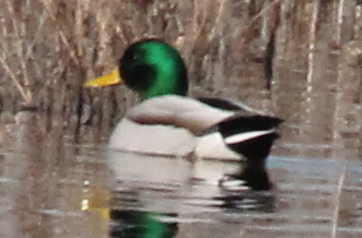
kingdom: Animalia
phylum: Chordata
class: Aves
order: Anseriformes
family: Anatidae
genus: Anas
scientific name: Anas platyrhynchos
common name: Mallard
